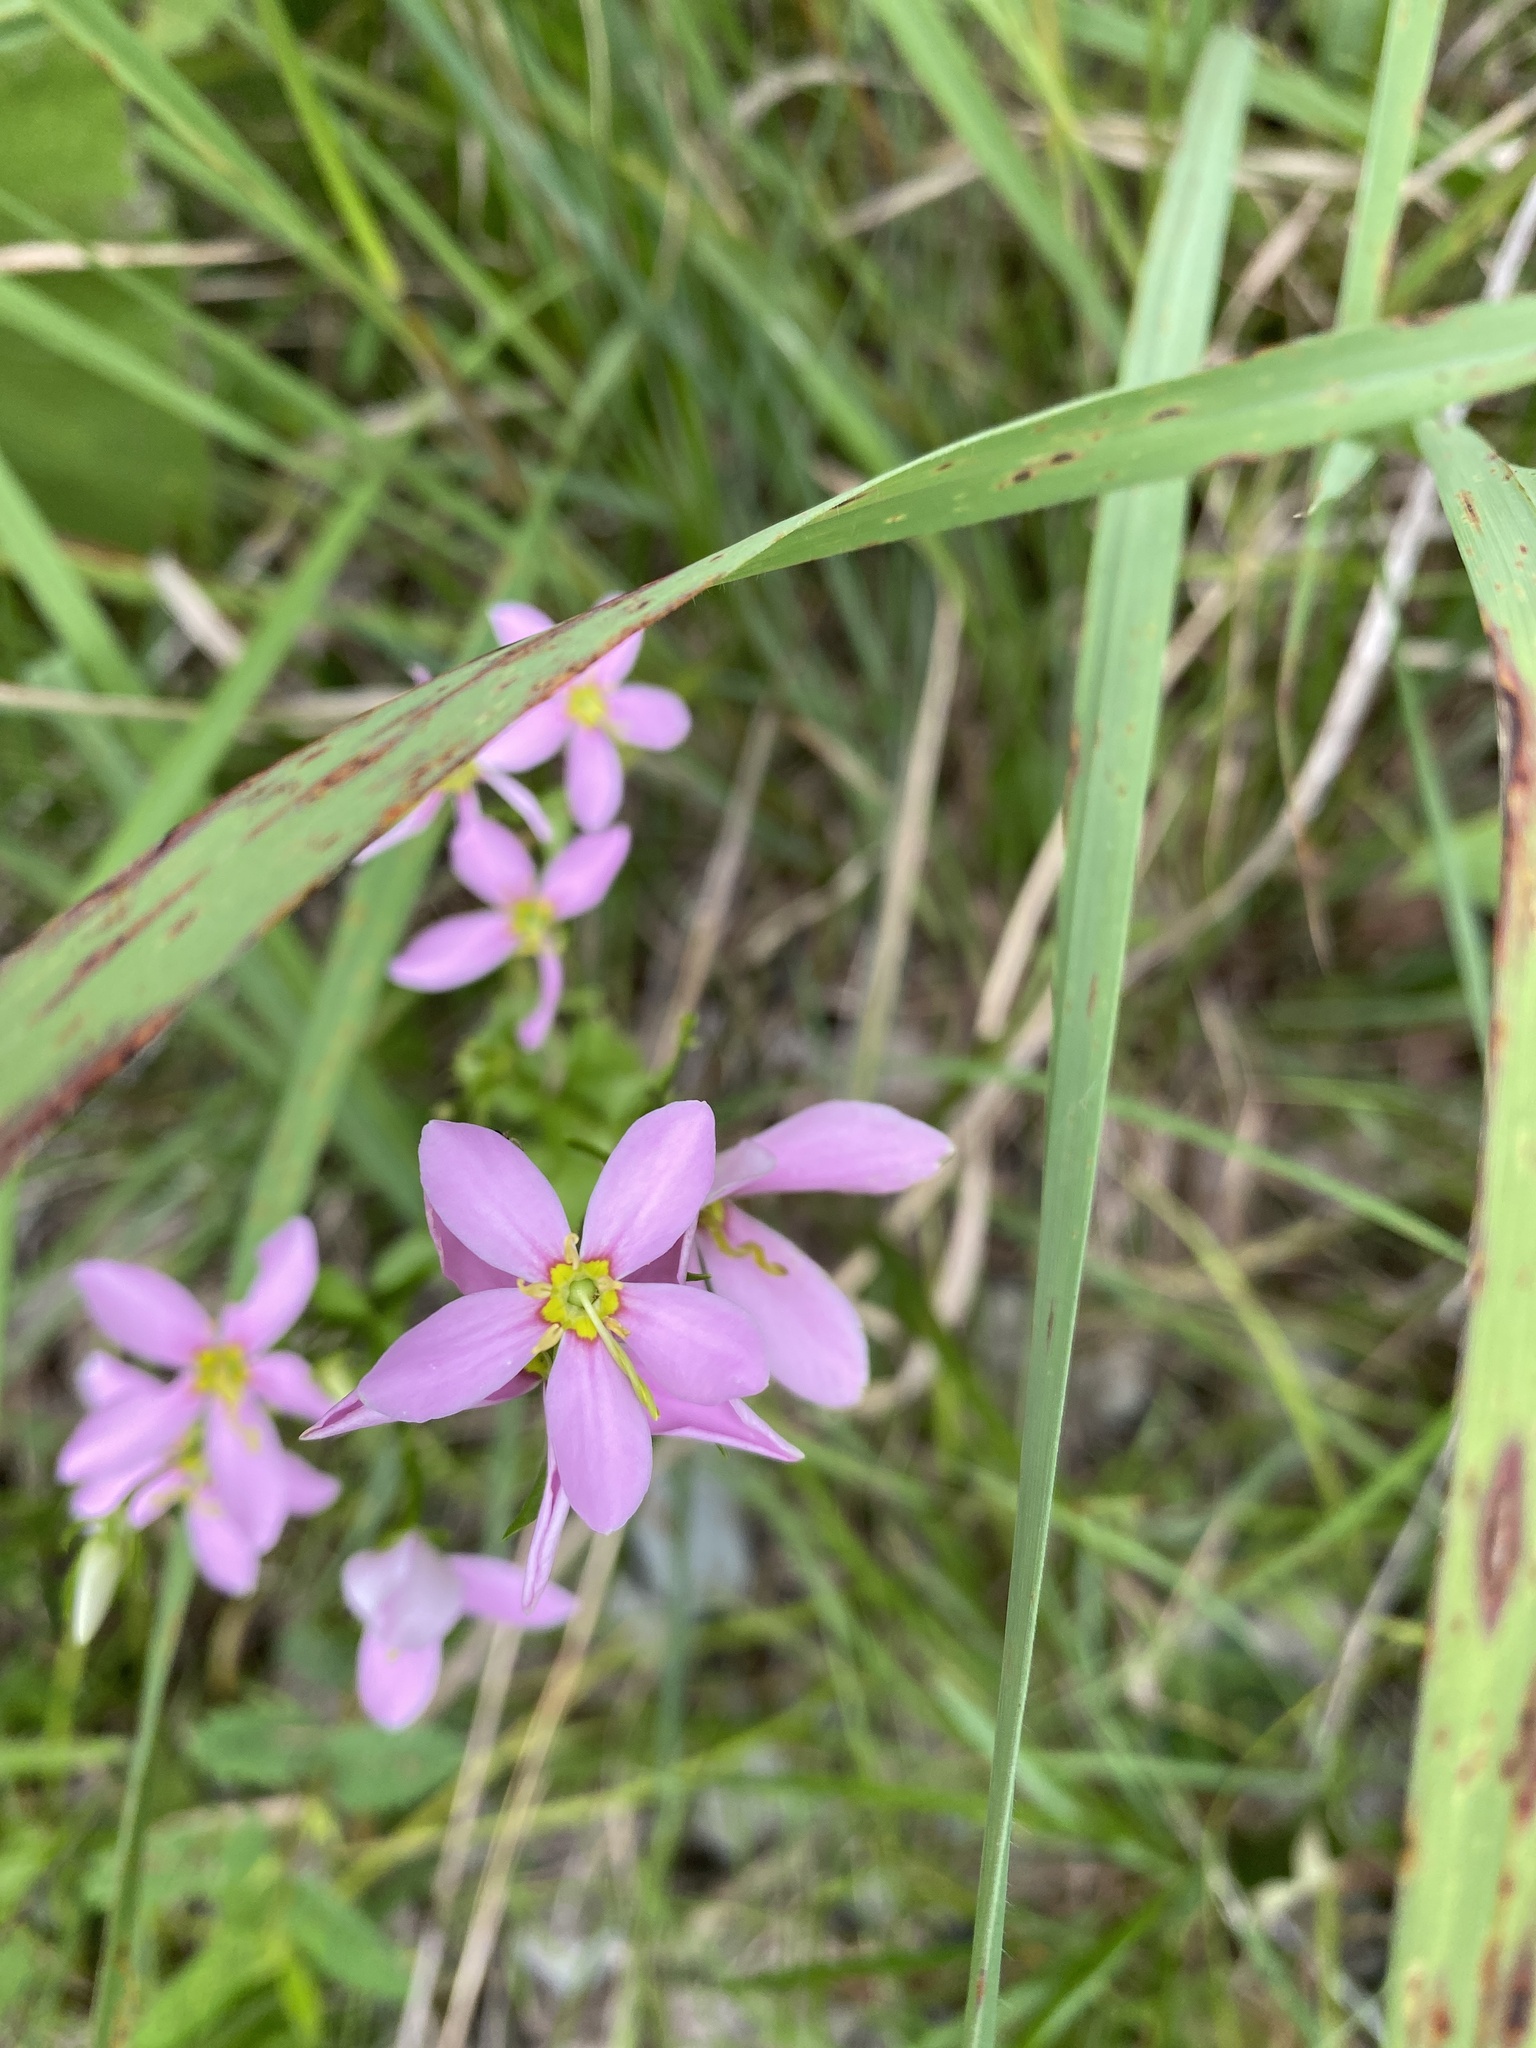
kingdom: Plantae
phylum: Tracheophyta
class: Magnoliopsida
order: Gentianales
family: Gentianaceae
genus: Sabatia
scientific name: Sabatia angularis
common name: Rose-pink
